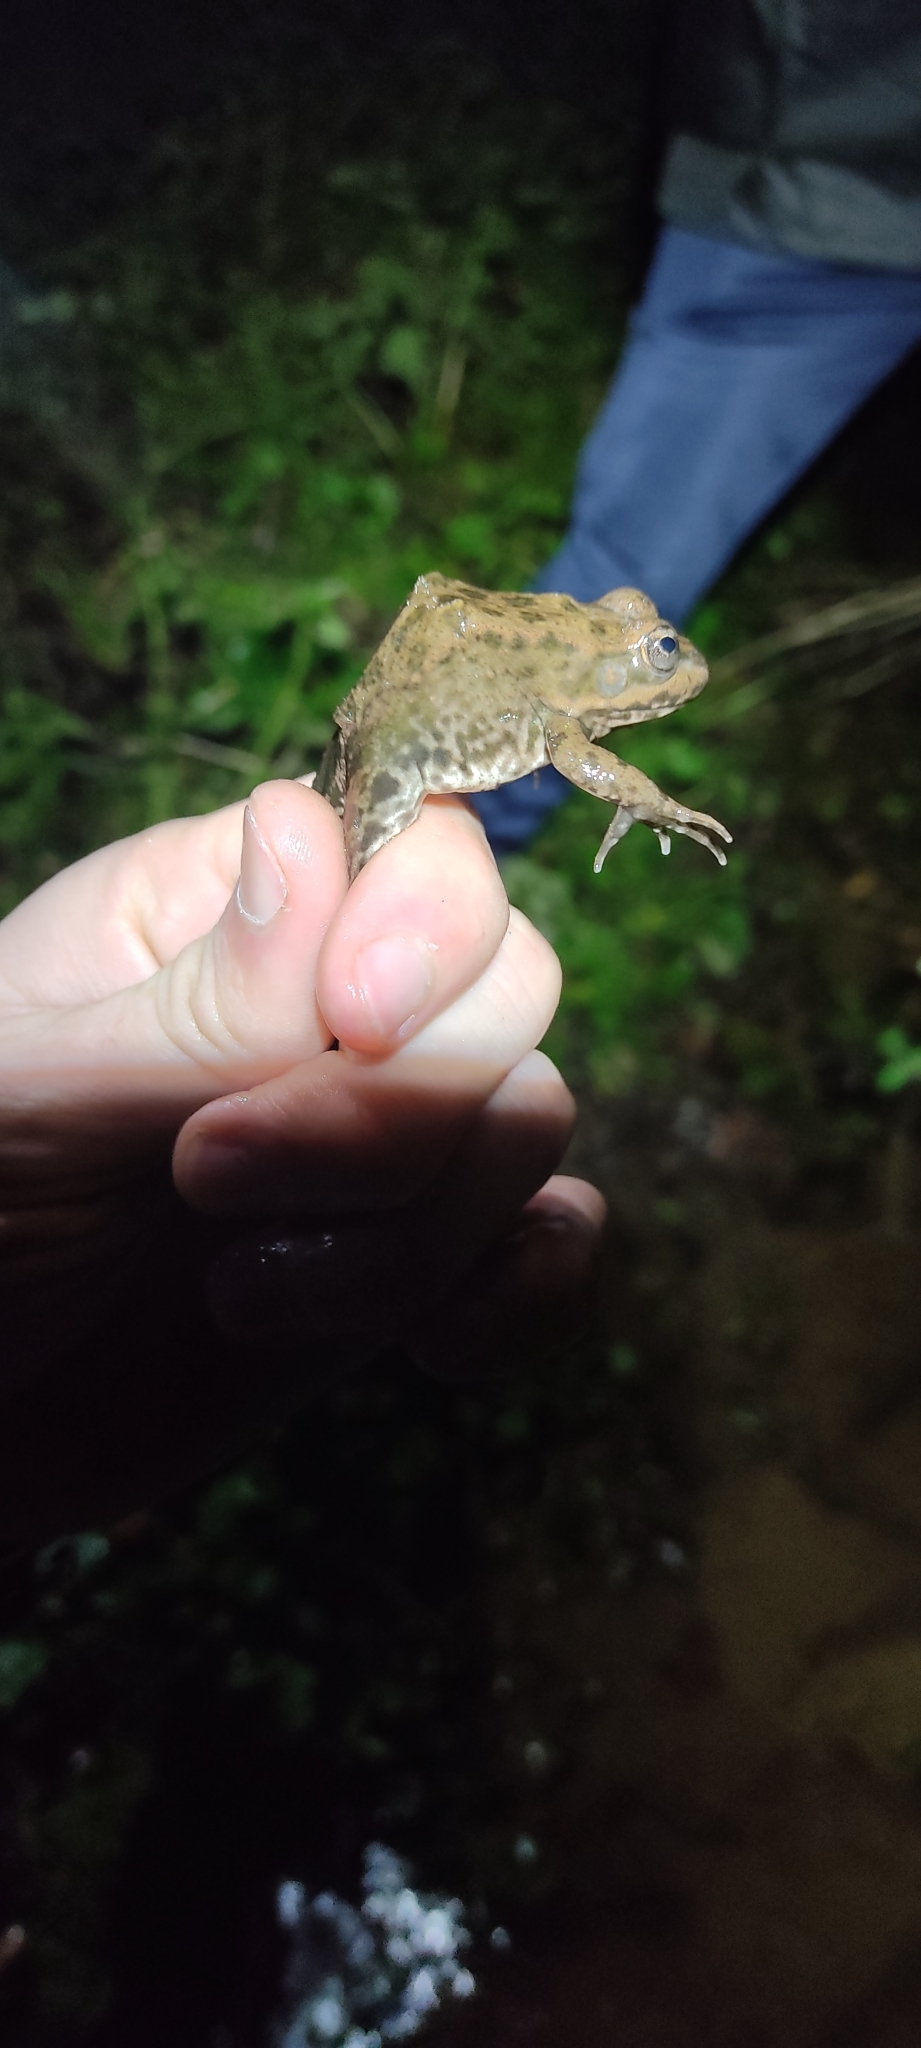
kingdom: Animalia
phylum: Chordata
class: Amphibia
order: Anura
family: Ranidae
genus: Pelophylax
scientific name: Pelophylax
